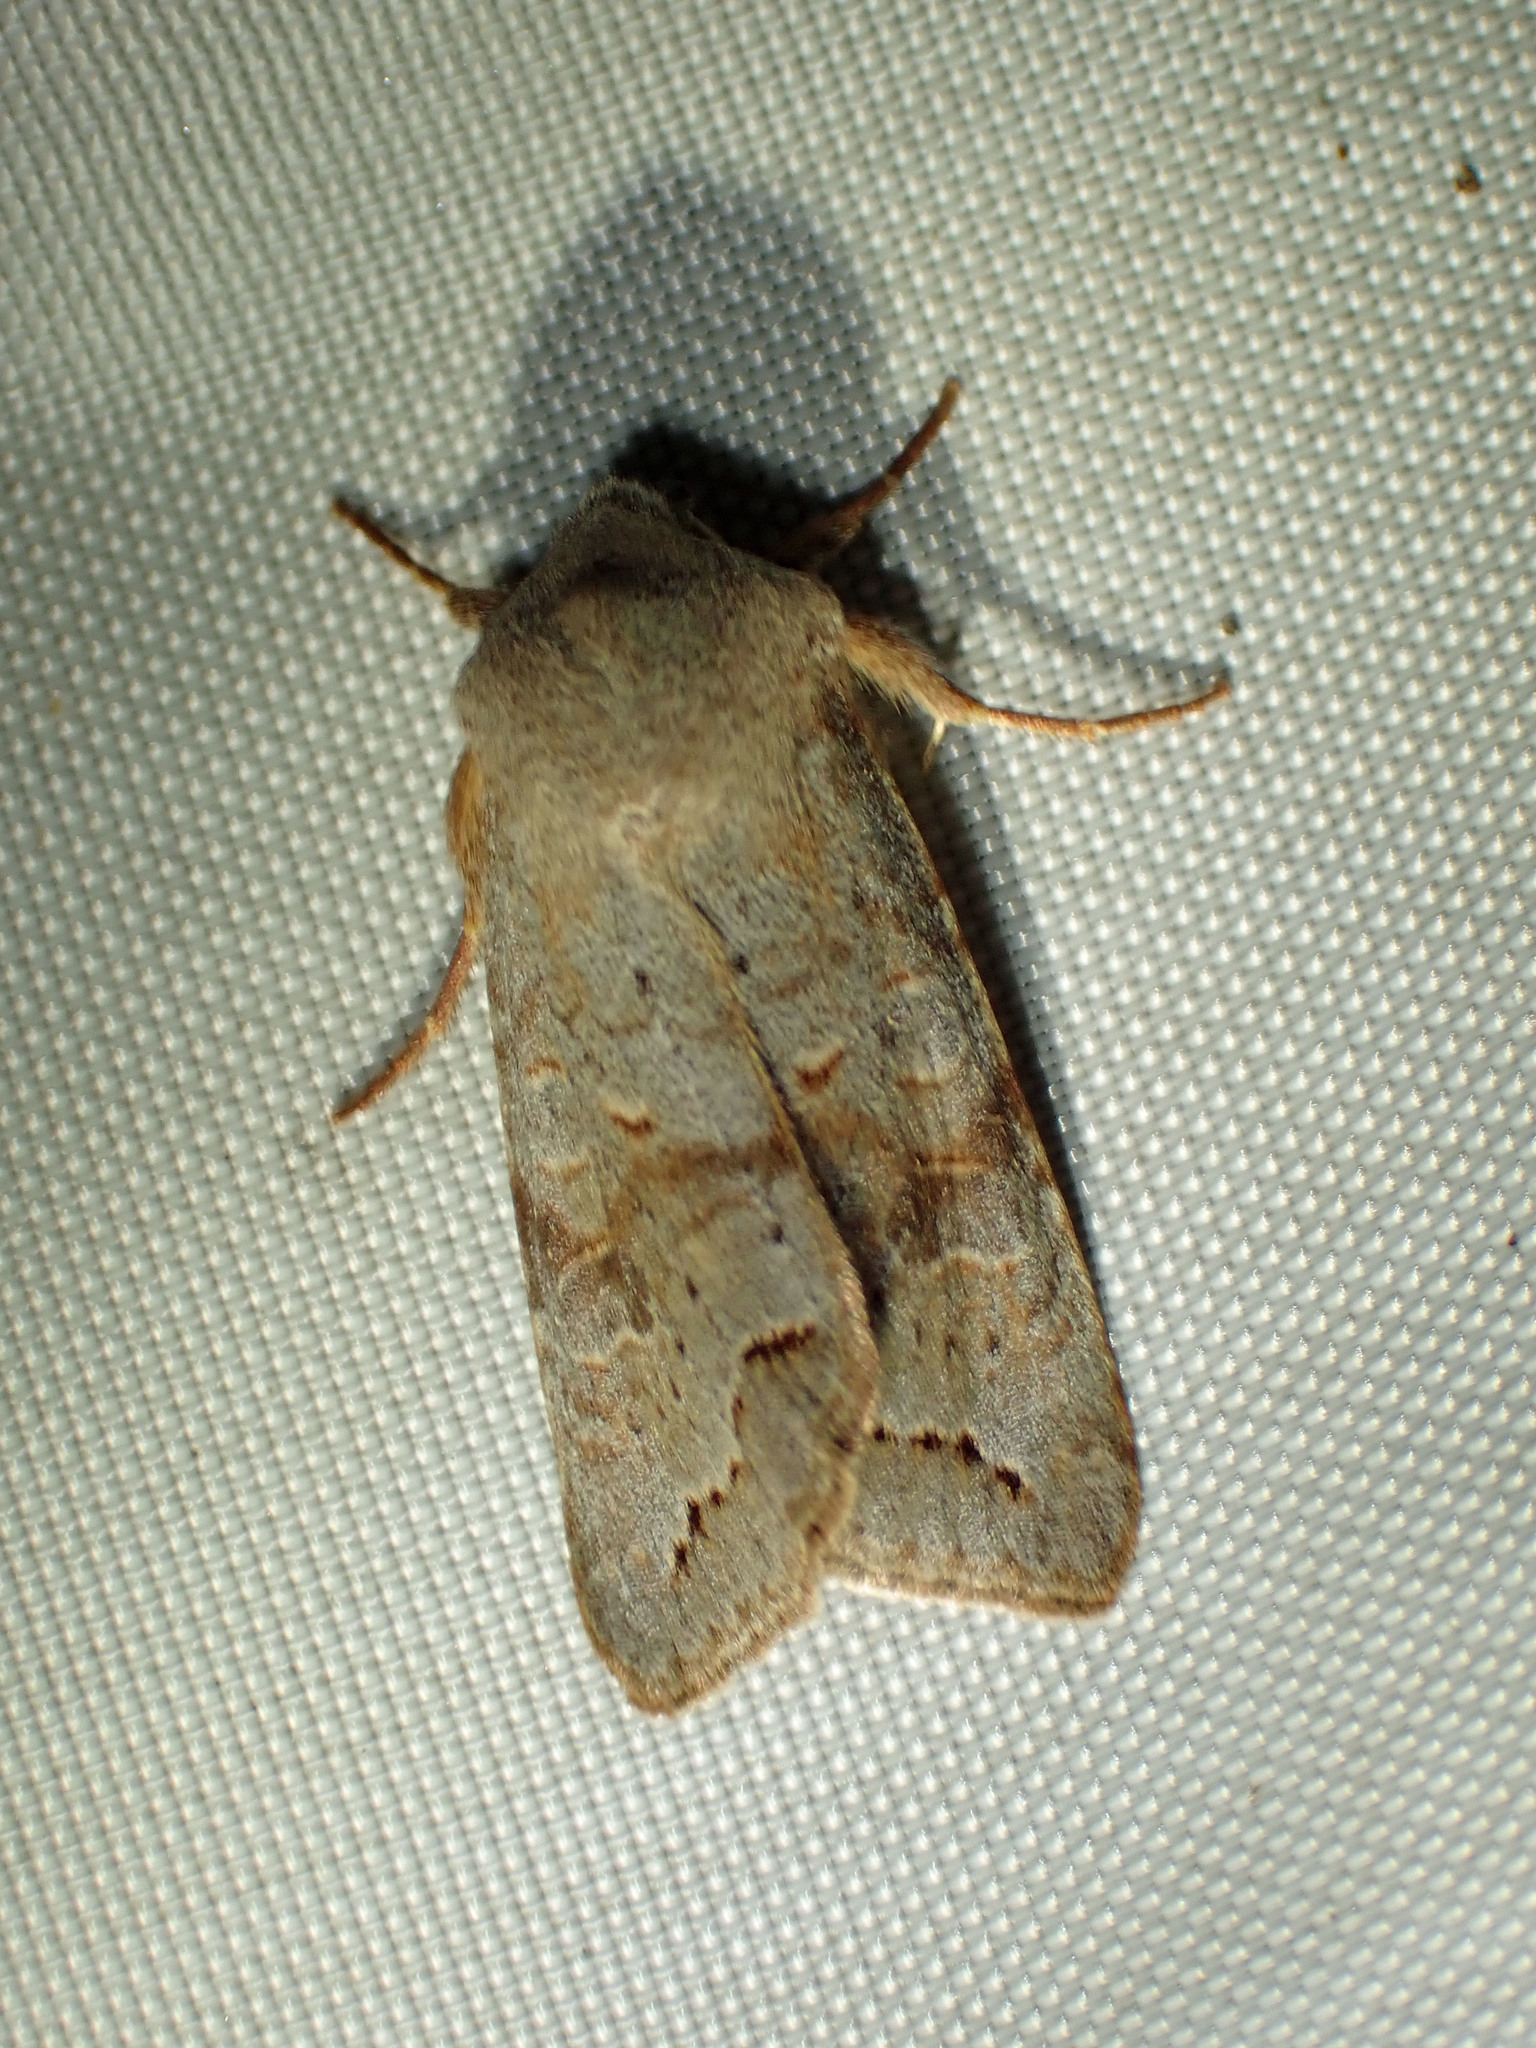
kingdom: Animalia
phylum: Arthropoda
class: Insecta
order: Lepidoptera
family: Noctuidae
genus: Orthosia
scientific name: Orthosia revicta
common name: Rusty whitesided caterpillar
